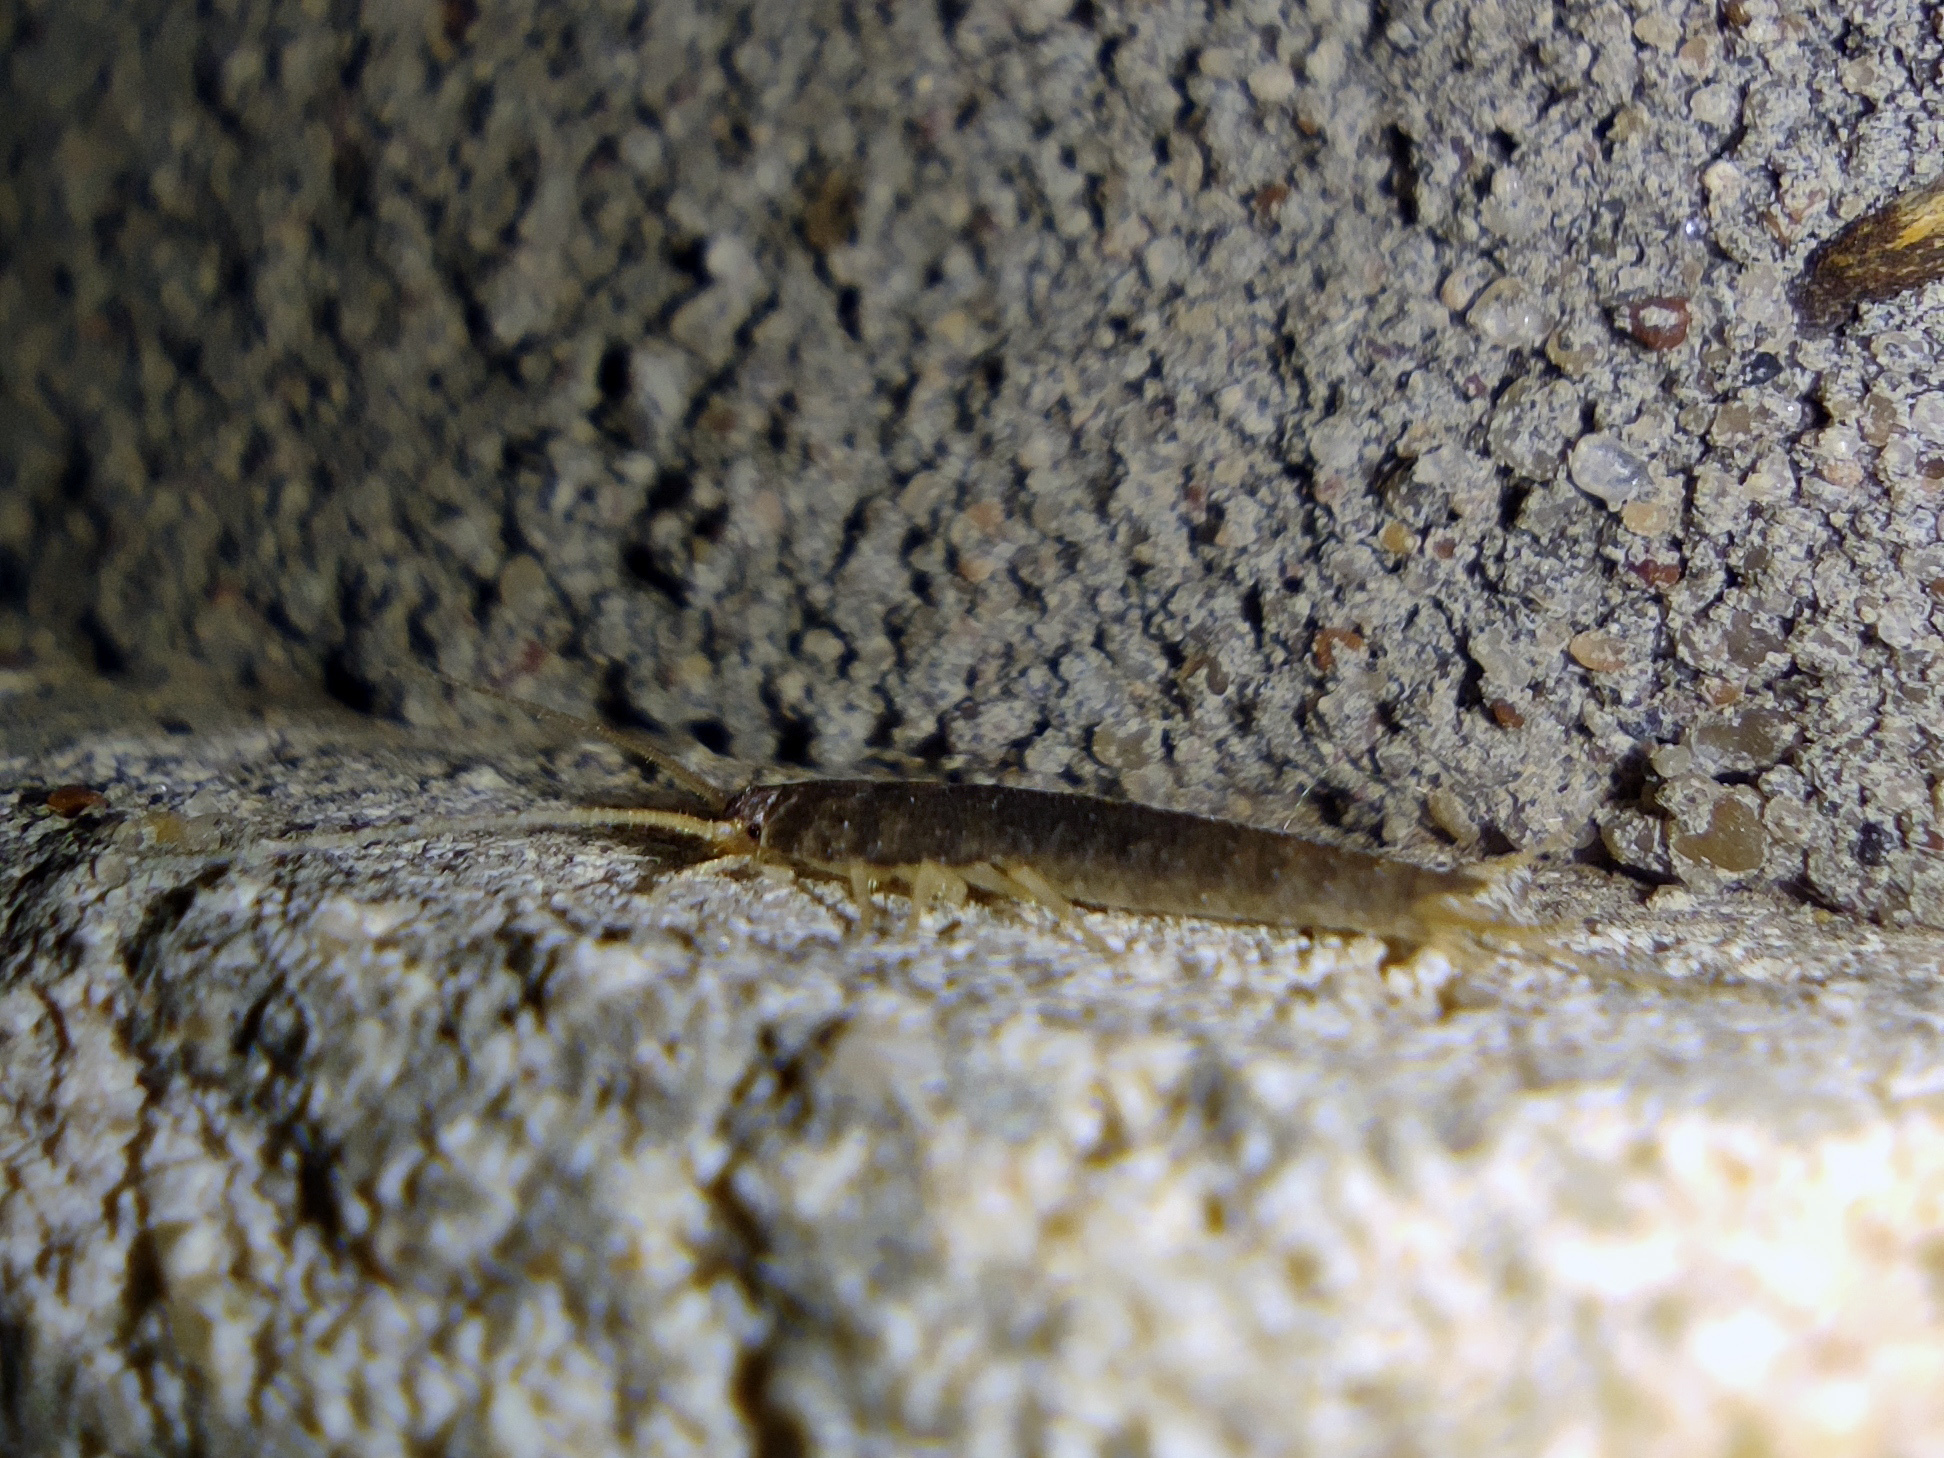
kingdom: Animalia
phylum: Arthropoda
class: Insecta
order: Zygentoma
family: Lepismatidae
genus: Lepisma
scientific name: Lepisma saccharinum
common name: Silverfish
